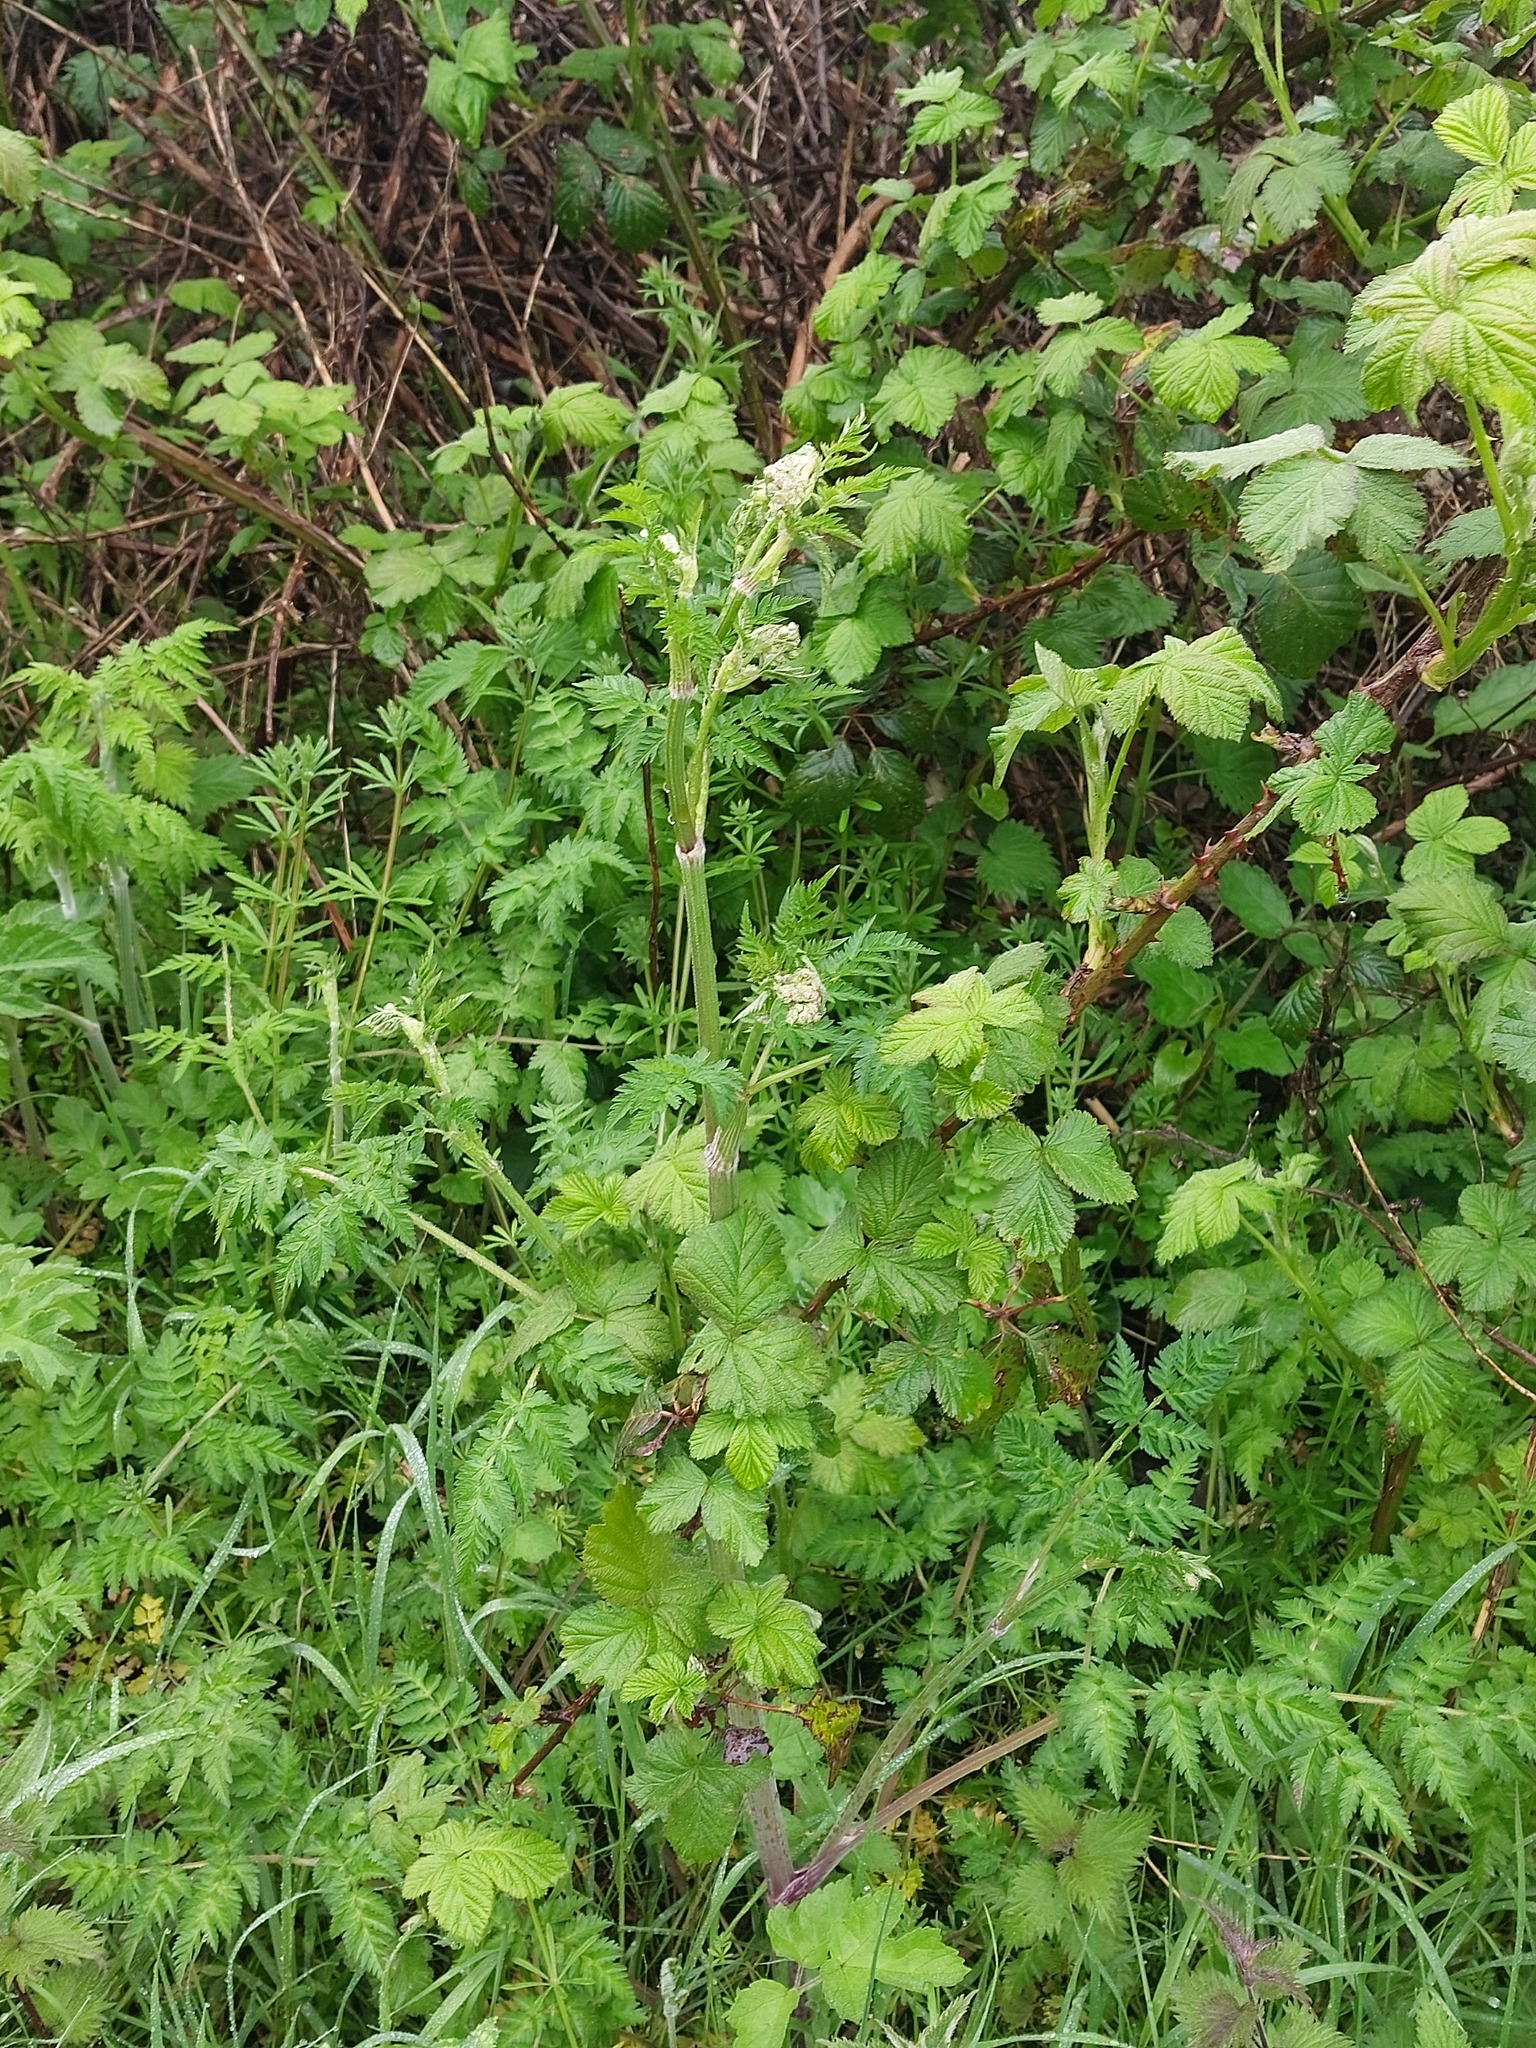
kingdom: Plantae
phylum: Tracheophyta
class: Magnoliopsida
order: Apiales
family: Apiaceae
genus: Anthriscus
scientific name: Anthriscus sylvestris
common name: Cow parsley
